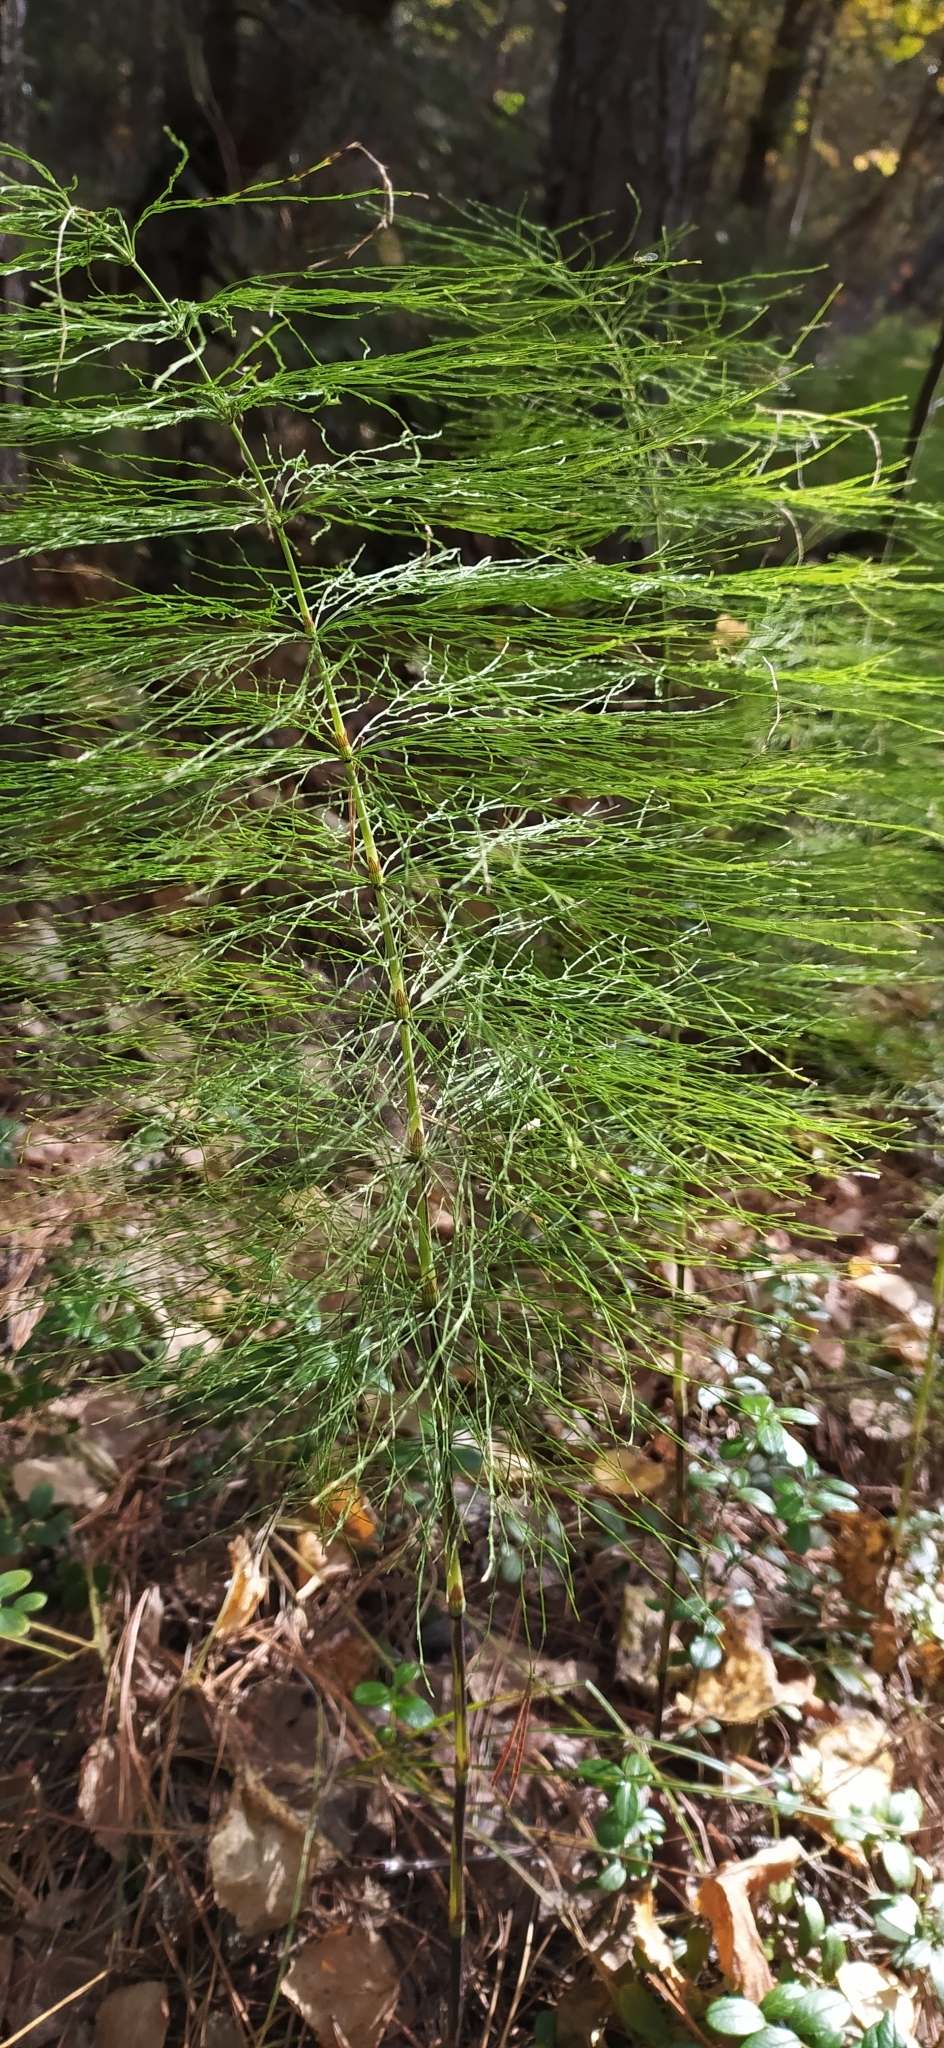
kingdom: Plantae
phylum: Tracheophyta
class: Polypodiopsida
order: Equisetales
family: Equisetaceae
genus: Equisetum
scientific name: Equisetum sylvaticum
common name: Wood horsetail
